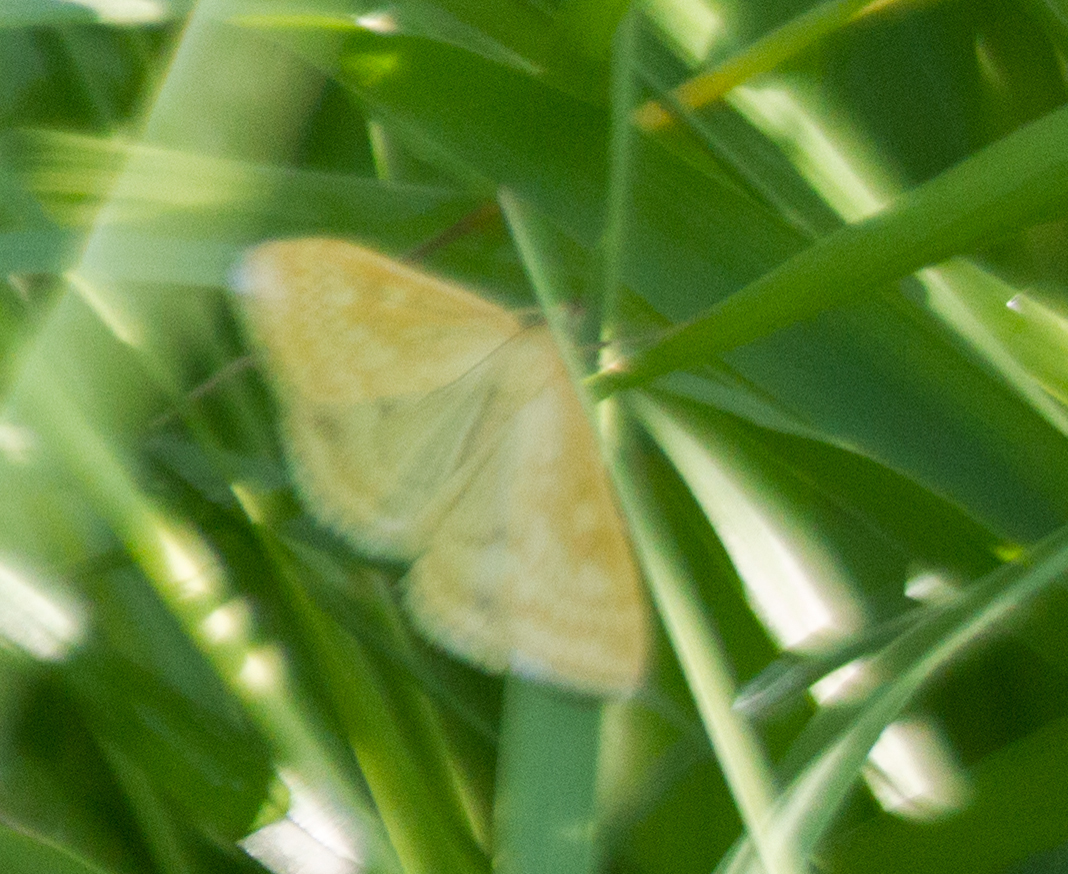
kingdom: Animalia
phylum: Arthropoda
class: Insecta
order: Lepidoptera
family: Crambidae
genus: Sitochroa
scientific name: Sitochroa verticalis
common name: Lesser pearl
